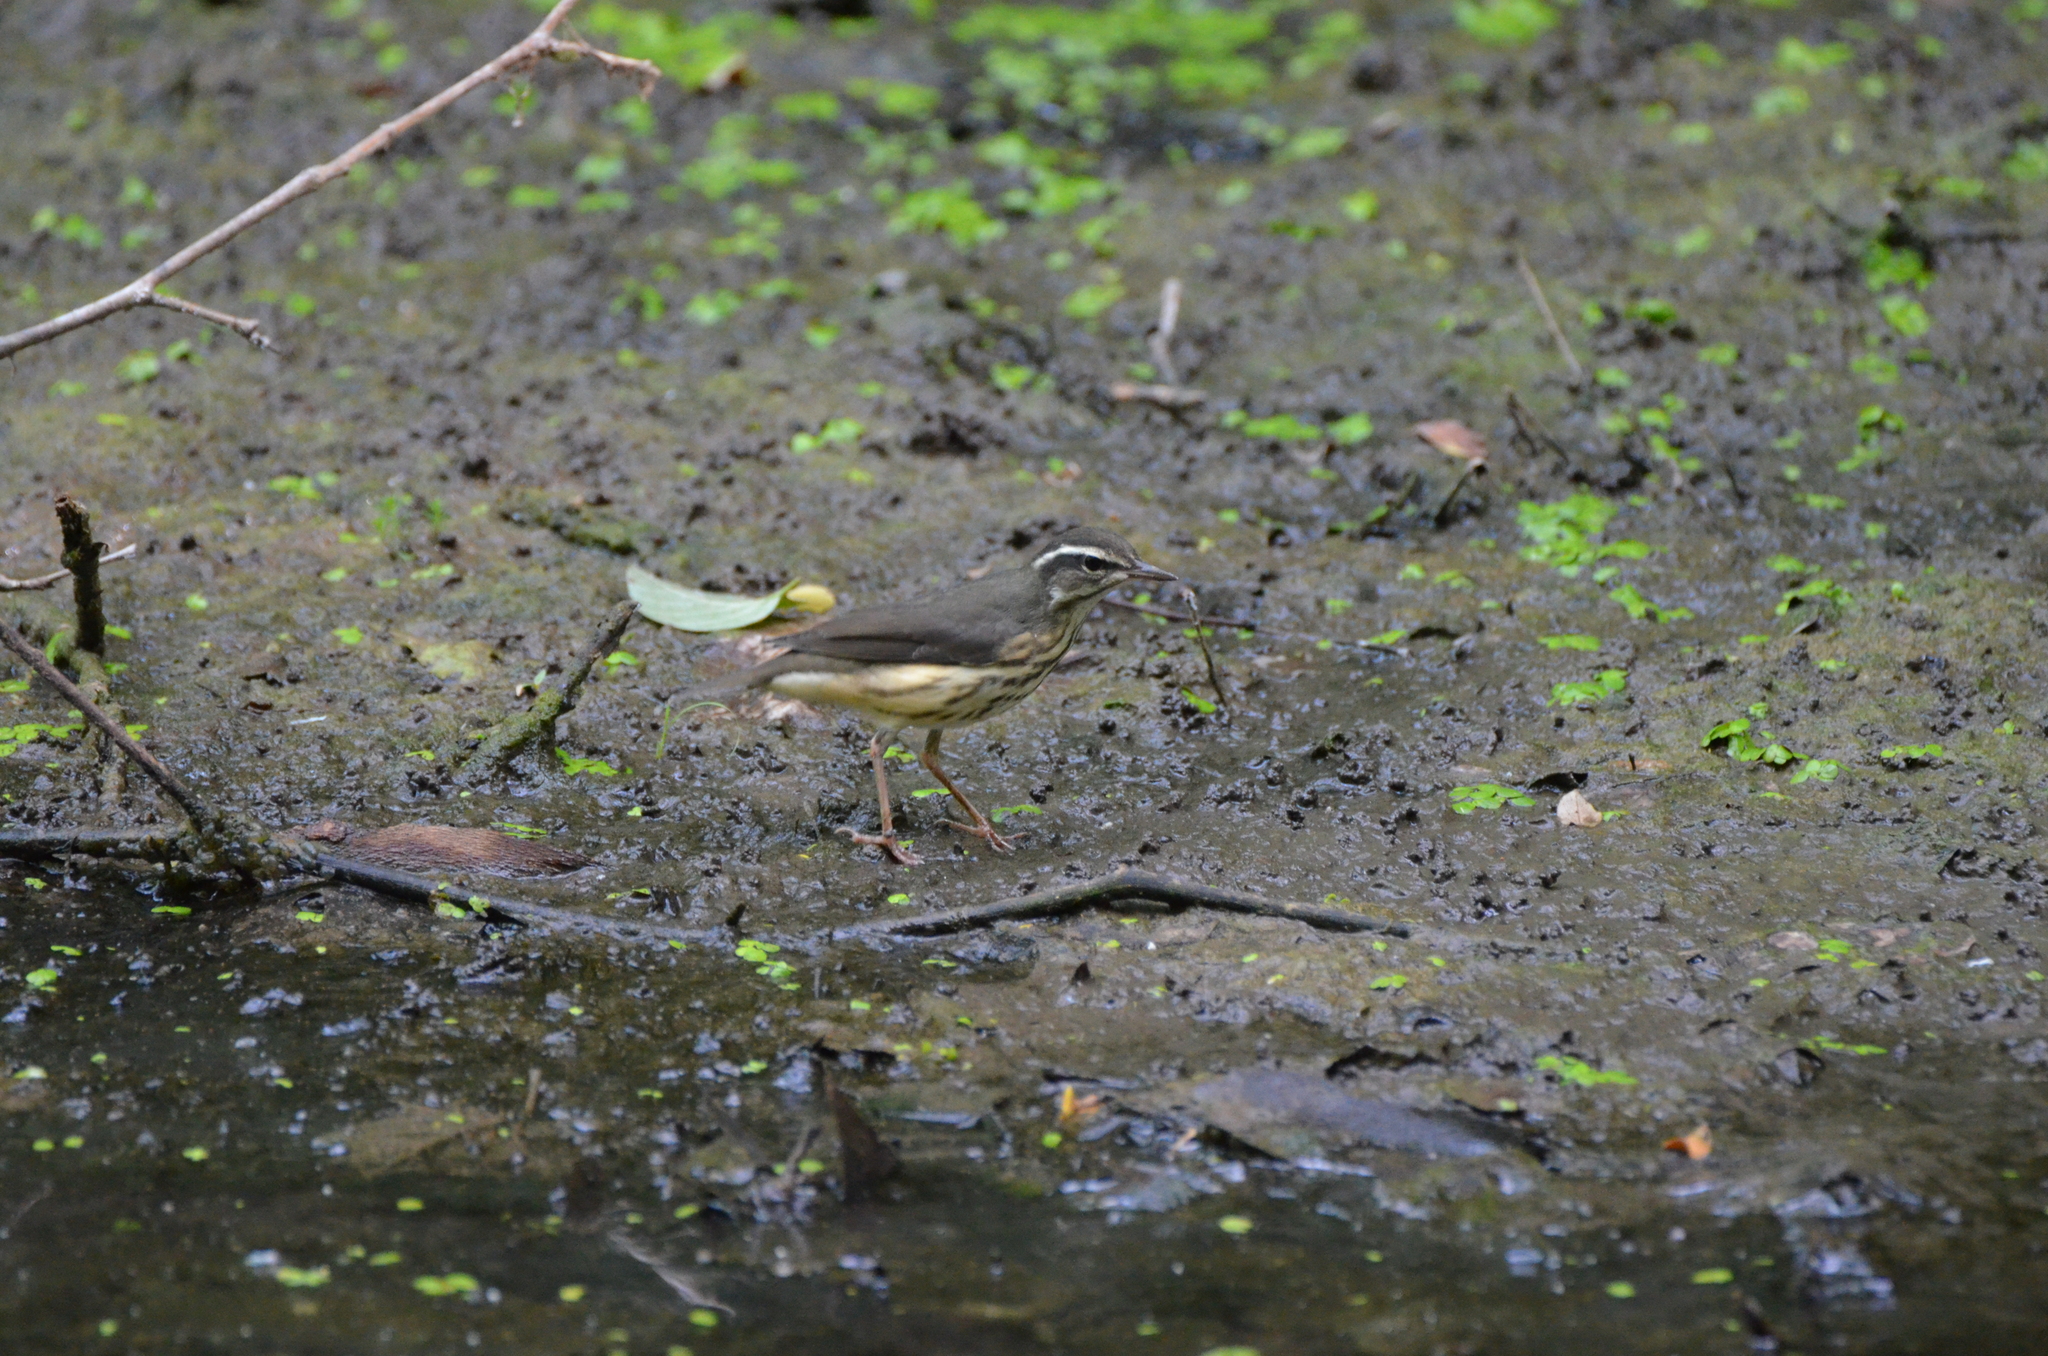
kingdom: Animalia
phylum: Chordata
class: Aves
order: Passeriformes
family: Parulidae
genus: Parkesia
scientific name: Parkesia motacilla
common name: Louisiana waterthrush
